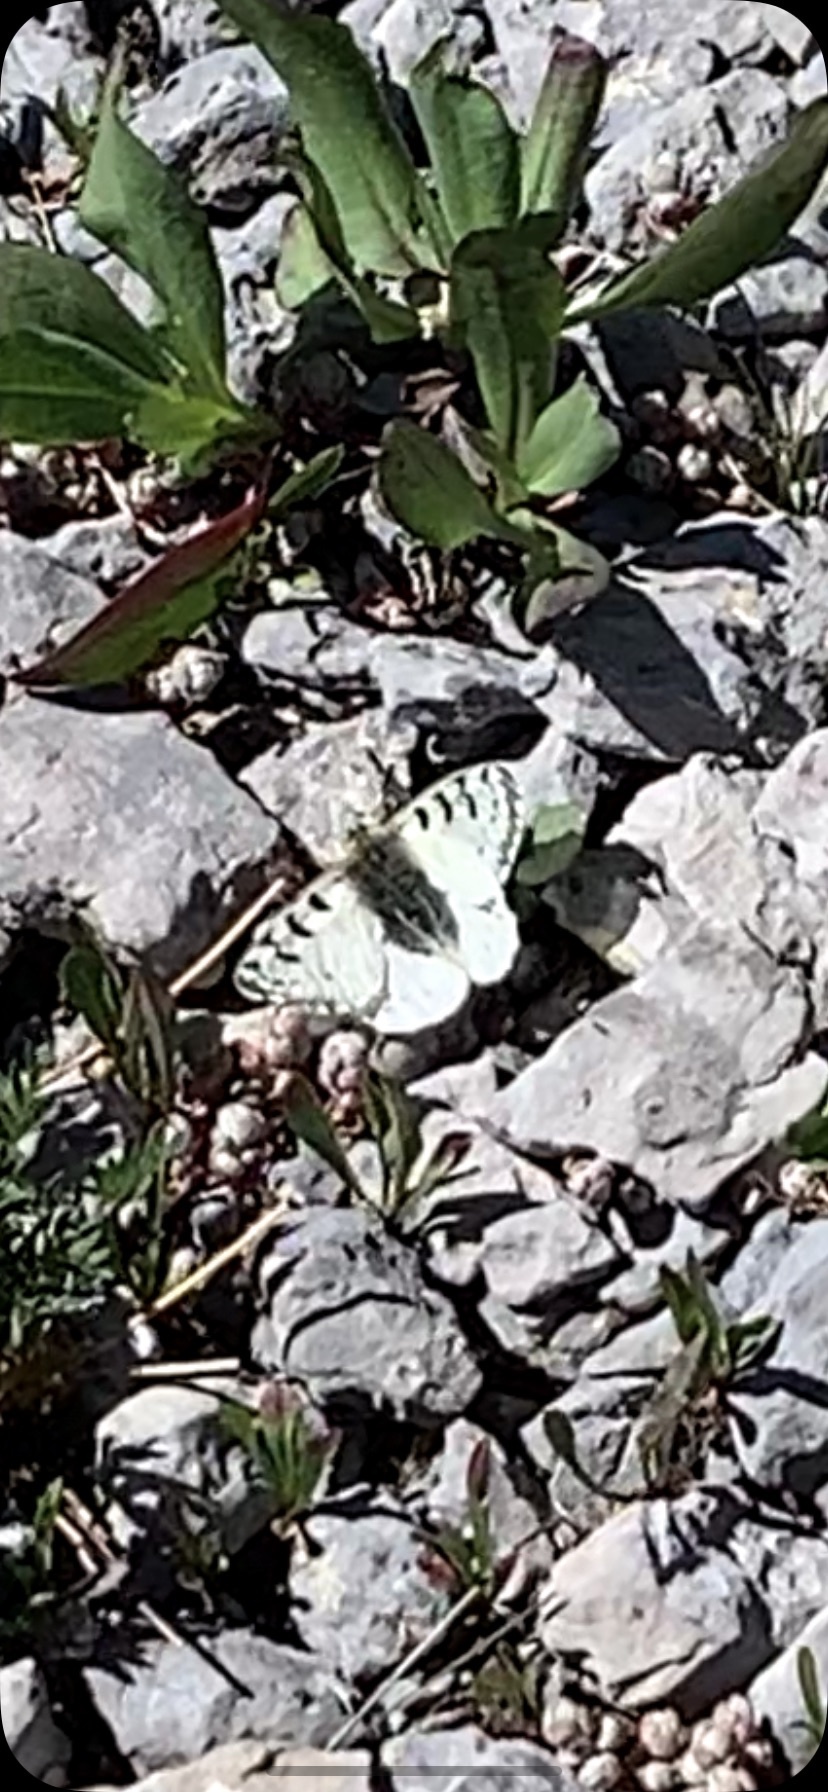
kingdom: Animalia
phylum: Arthropoda
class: Insecta
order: Lepidoptera
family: Papilionidae
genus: Parnassius
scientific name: Parnassius smintheus
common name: Mountain parnassian
